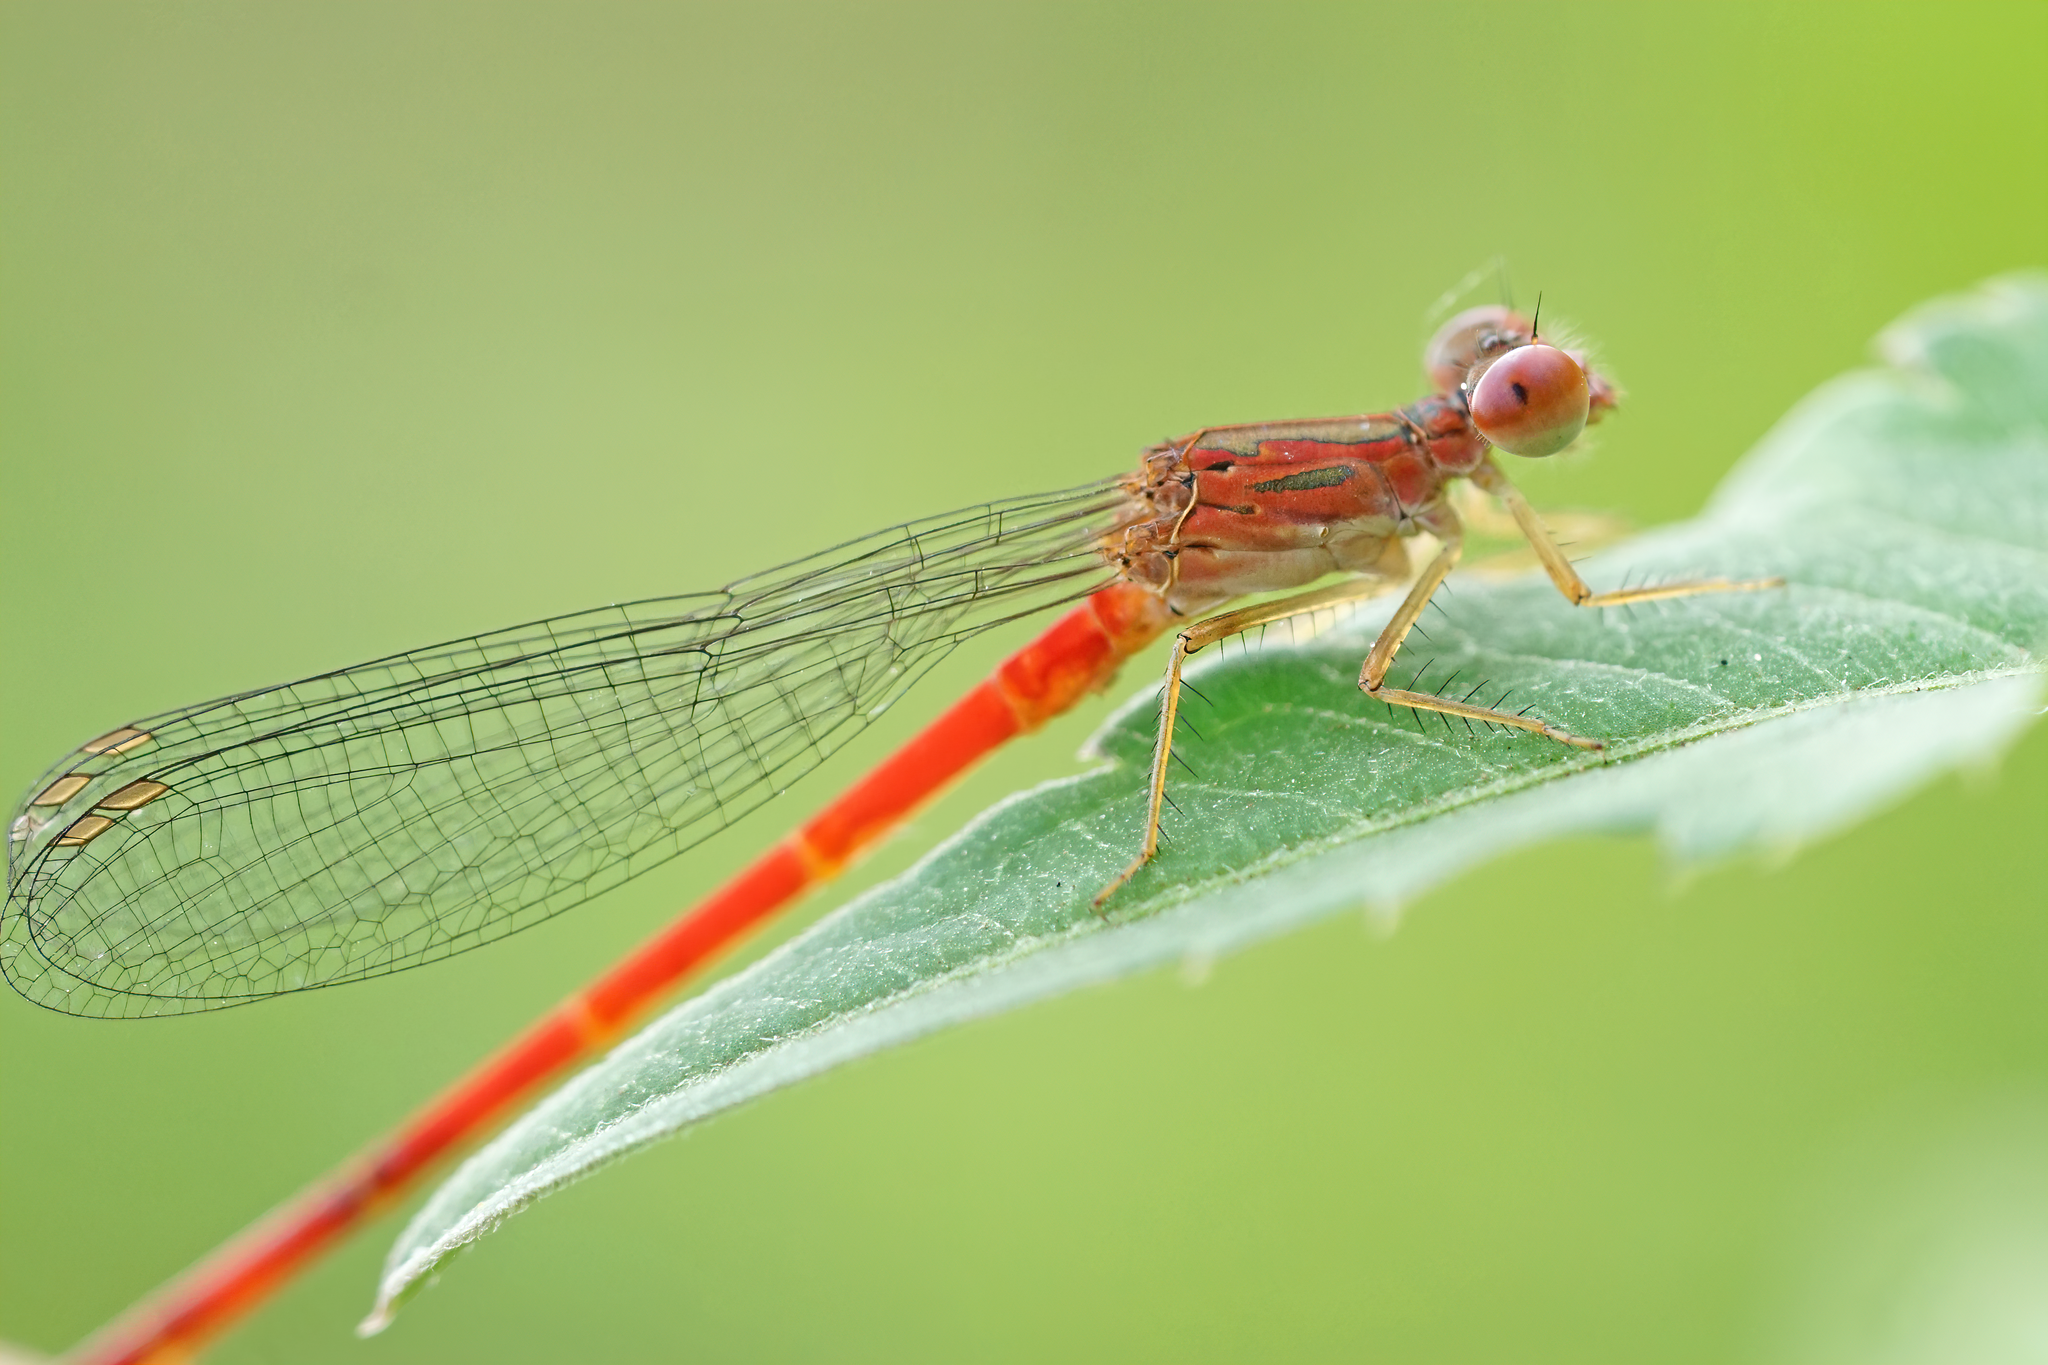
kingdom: Animalia
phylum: Arthropoda
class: Insecta
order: Odonata
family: Coenagrionidae
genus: Telebasis
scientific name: Telebasis byersi
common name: Duckweed firetail
